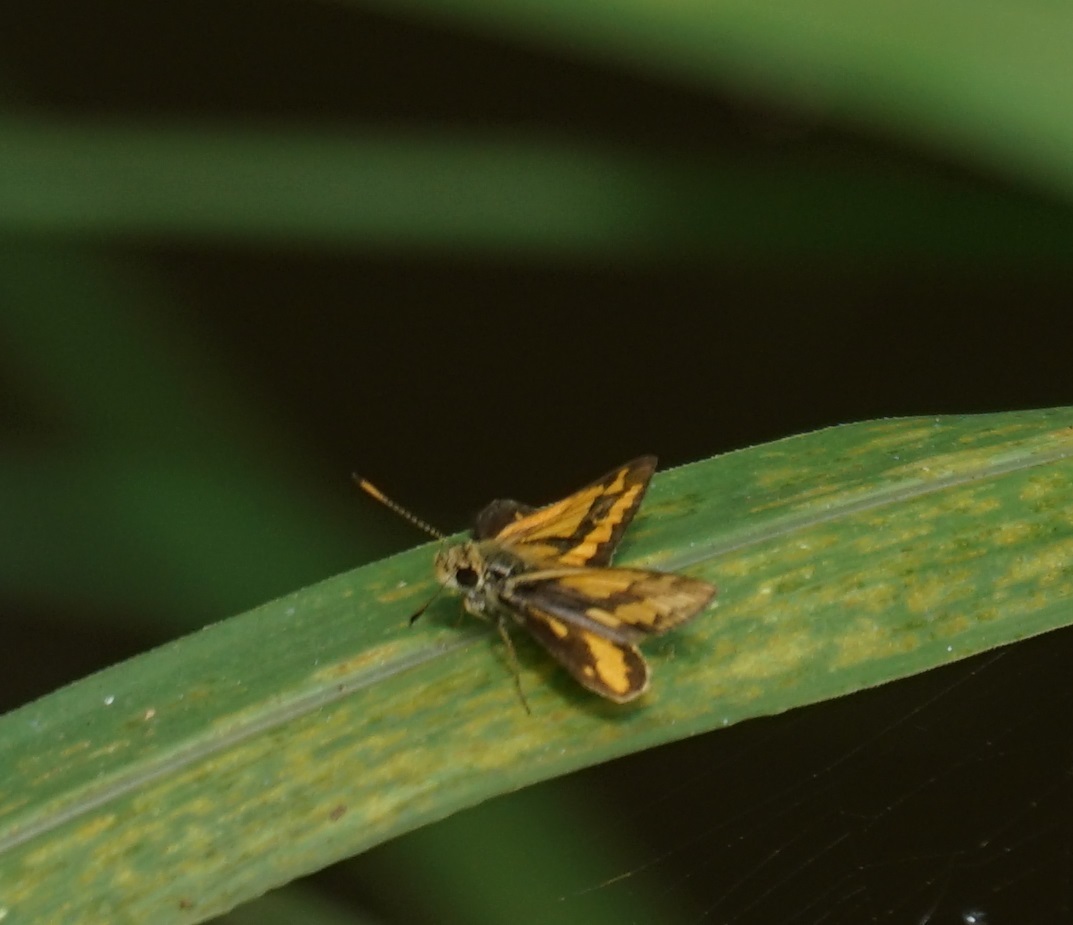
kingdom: Animalia
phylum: Arthropoda
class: Insecta
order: Lepidoptera
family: Hesperiidae
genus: Suniana
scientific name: Suniana sunias
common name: Wide-brand grass-dart
